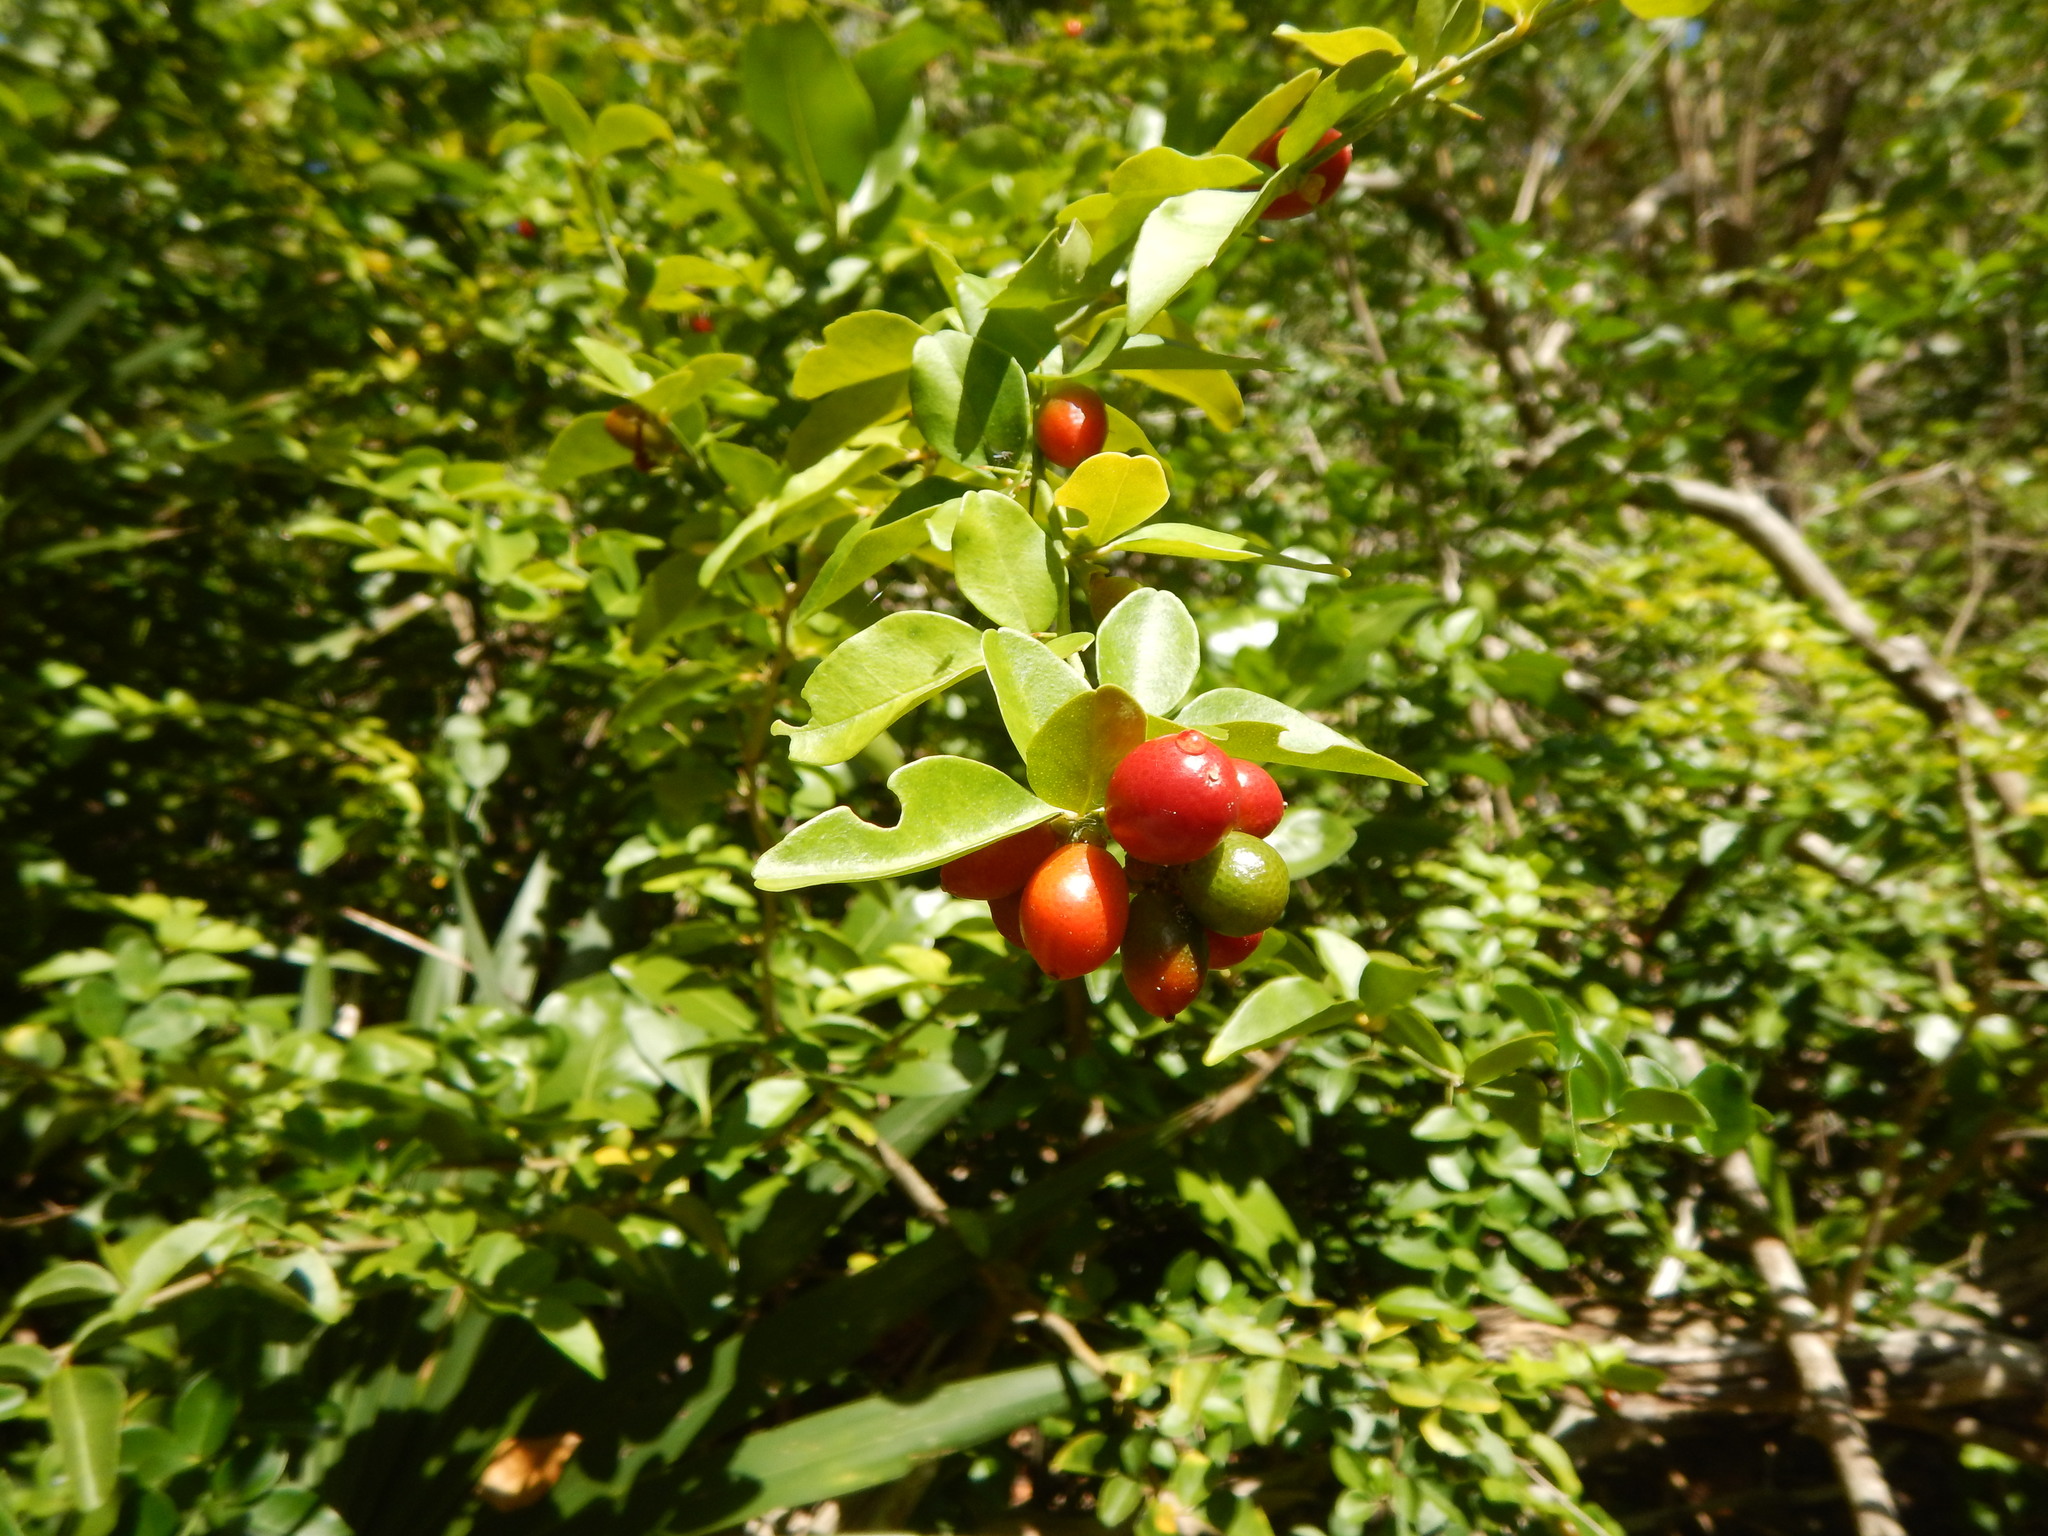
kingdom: Plantae
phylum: Tracheophyta
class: Magnoliopsida
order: Sapindales
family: Rutaceae
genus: Triphasia
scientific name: Triphasia trifolia
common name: Limeberry
